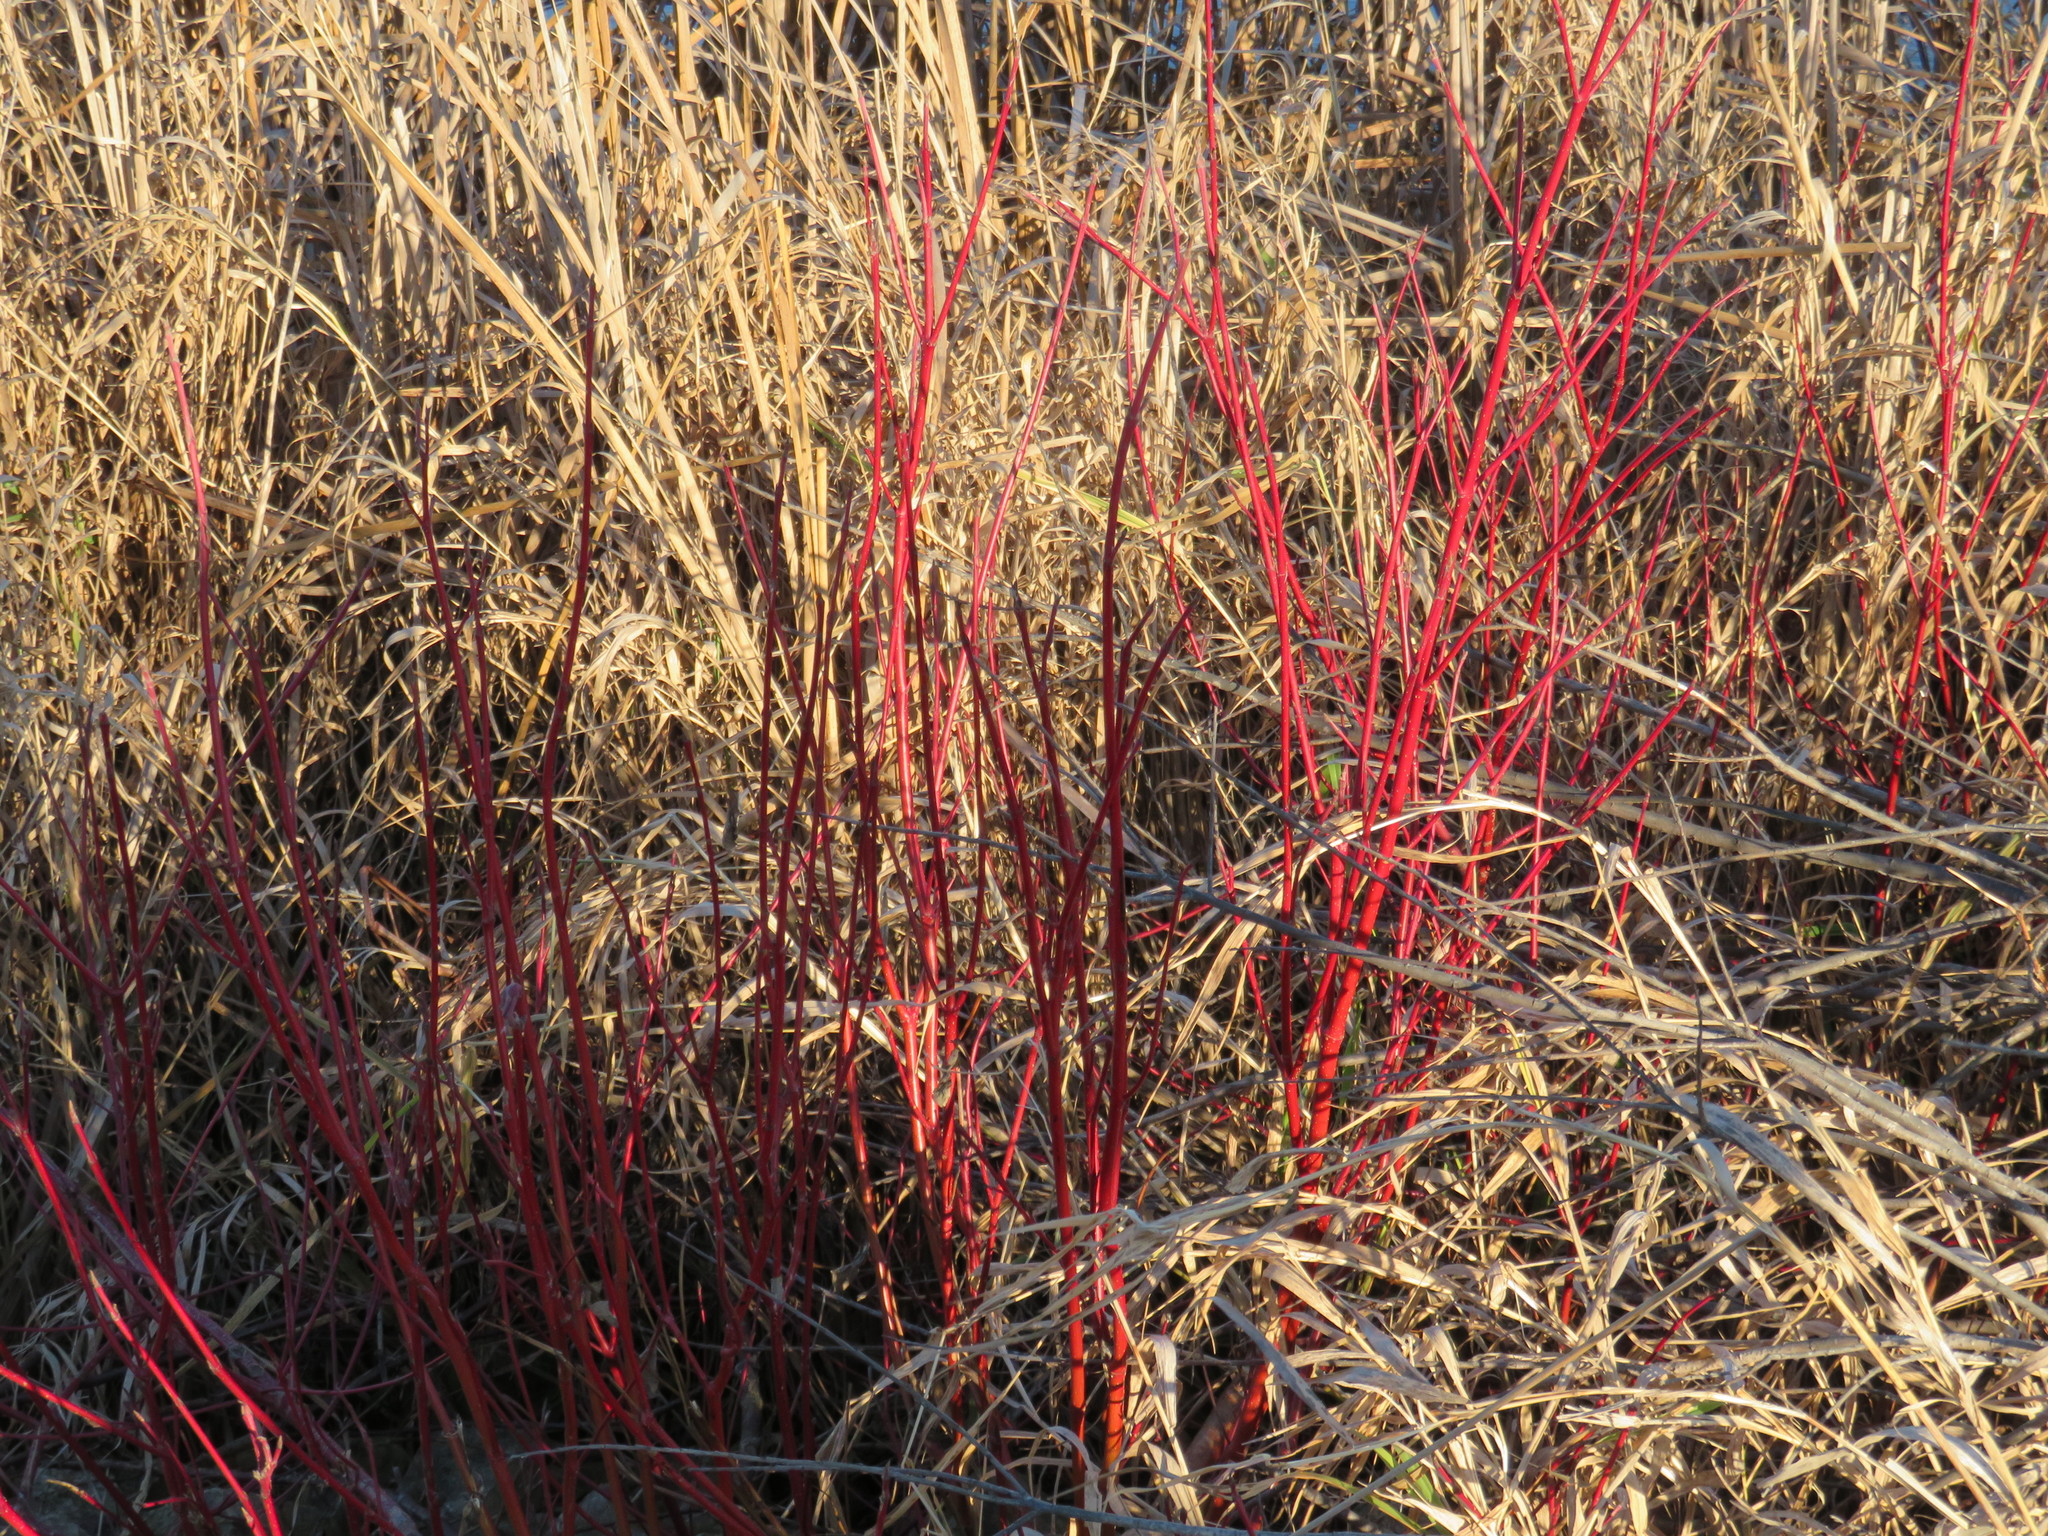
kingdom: Plantae
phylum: Tracheophyta
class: Magnoliopsida
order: Cornales
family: Cornaceae
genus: Cornus
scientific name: Cornus sericea
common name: Red-osier dogwood
